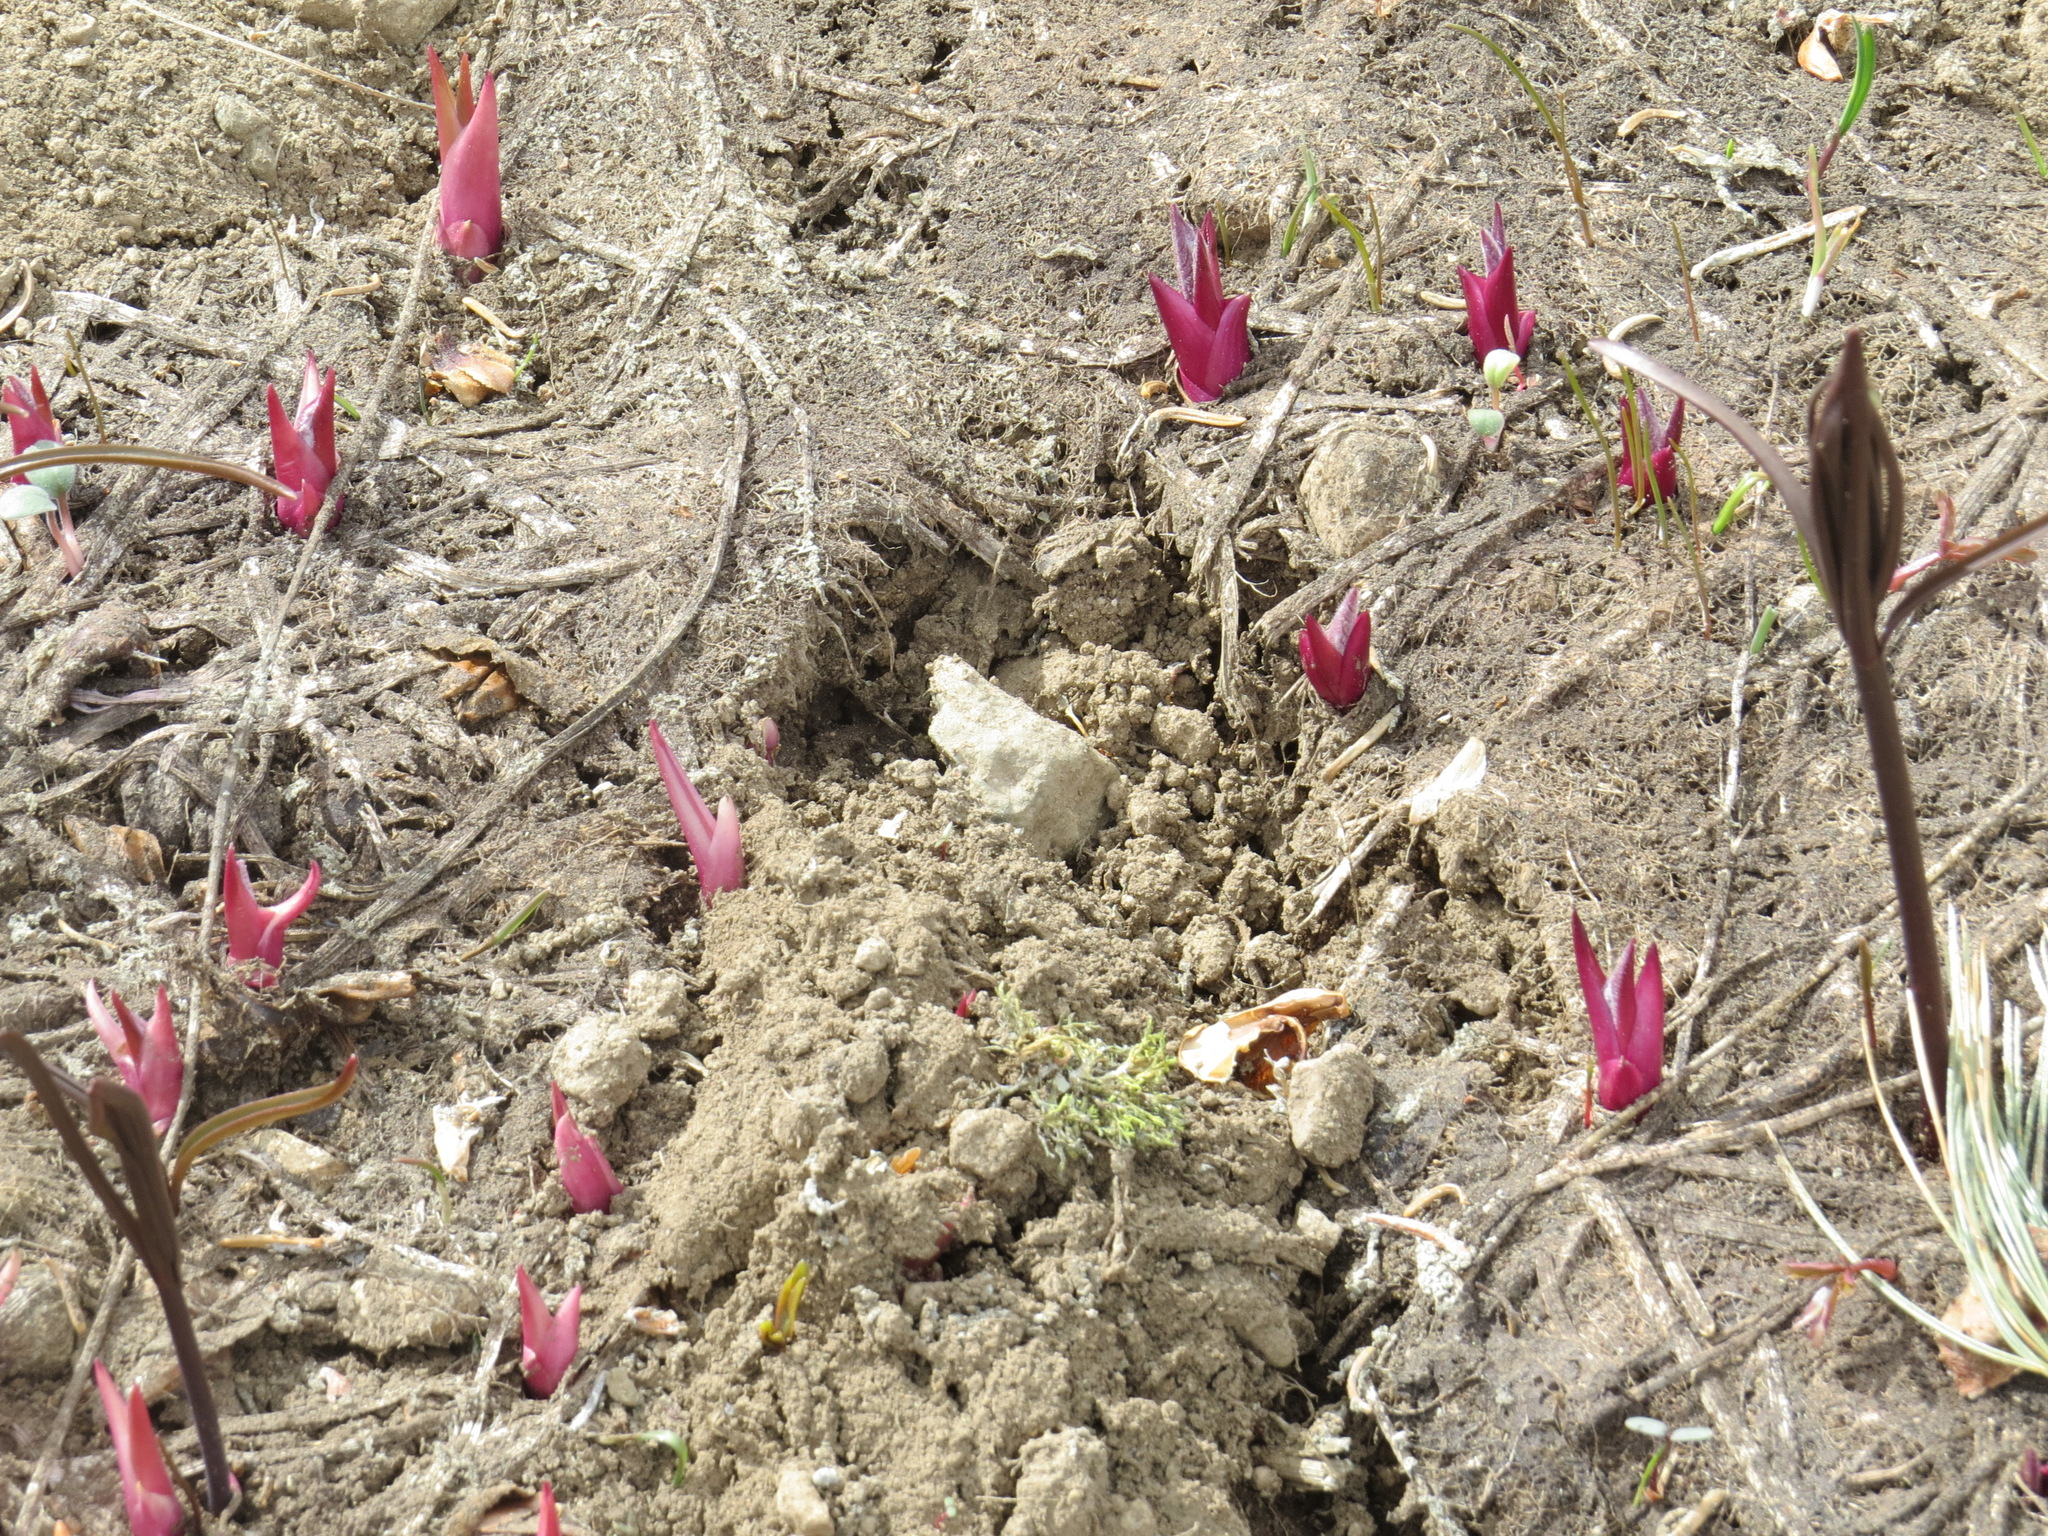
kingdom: Plantae
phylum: Tracheophyta
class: Magnoliopsida
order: Asterales
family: Asteraceae
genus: Wyethia
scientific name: Wyethia mollis
